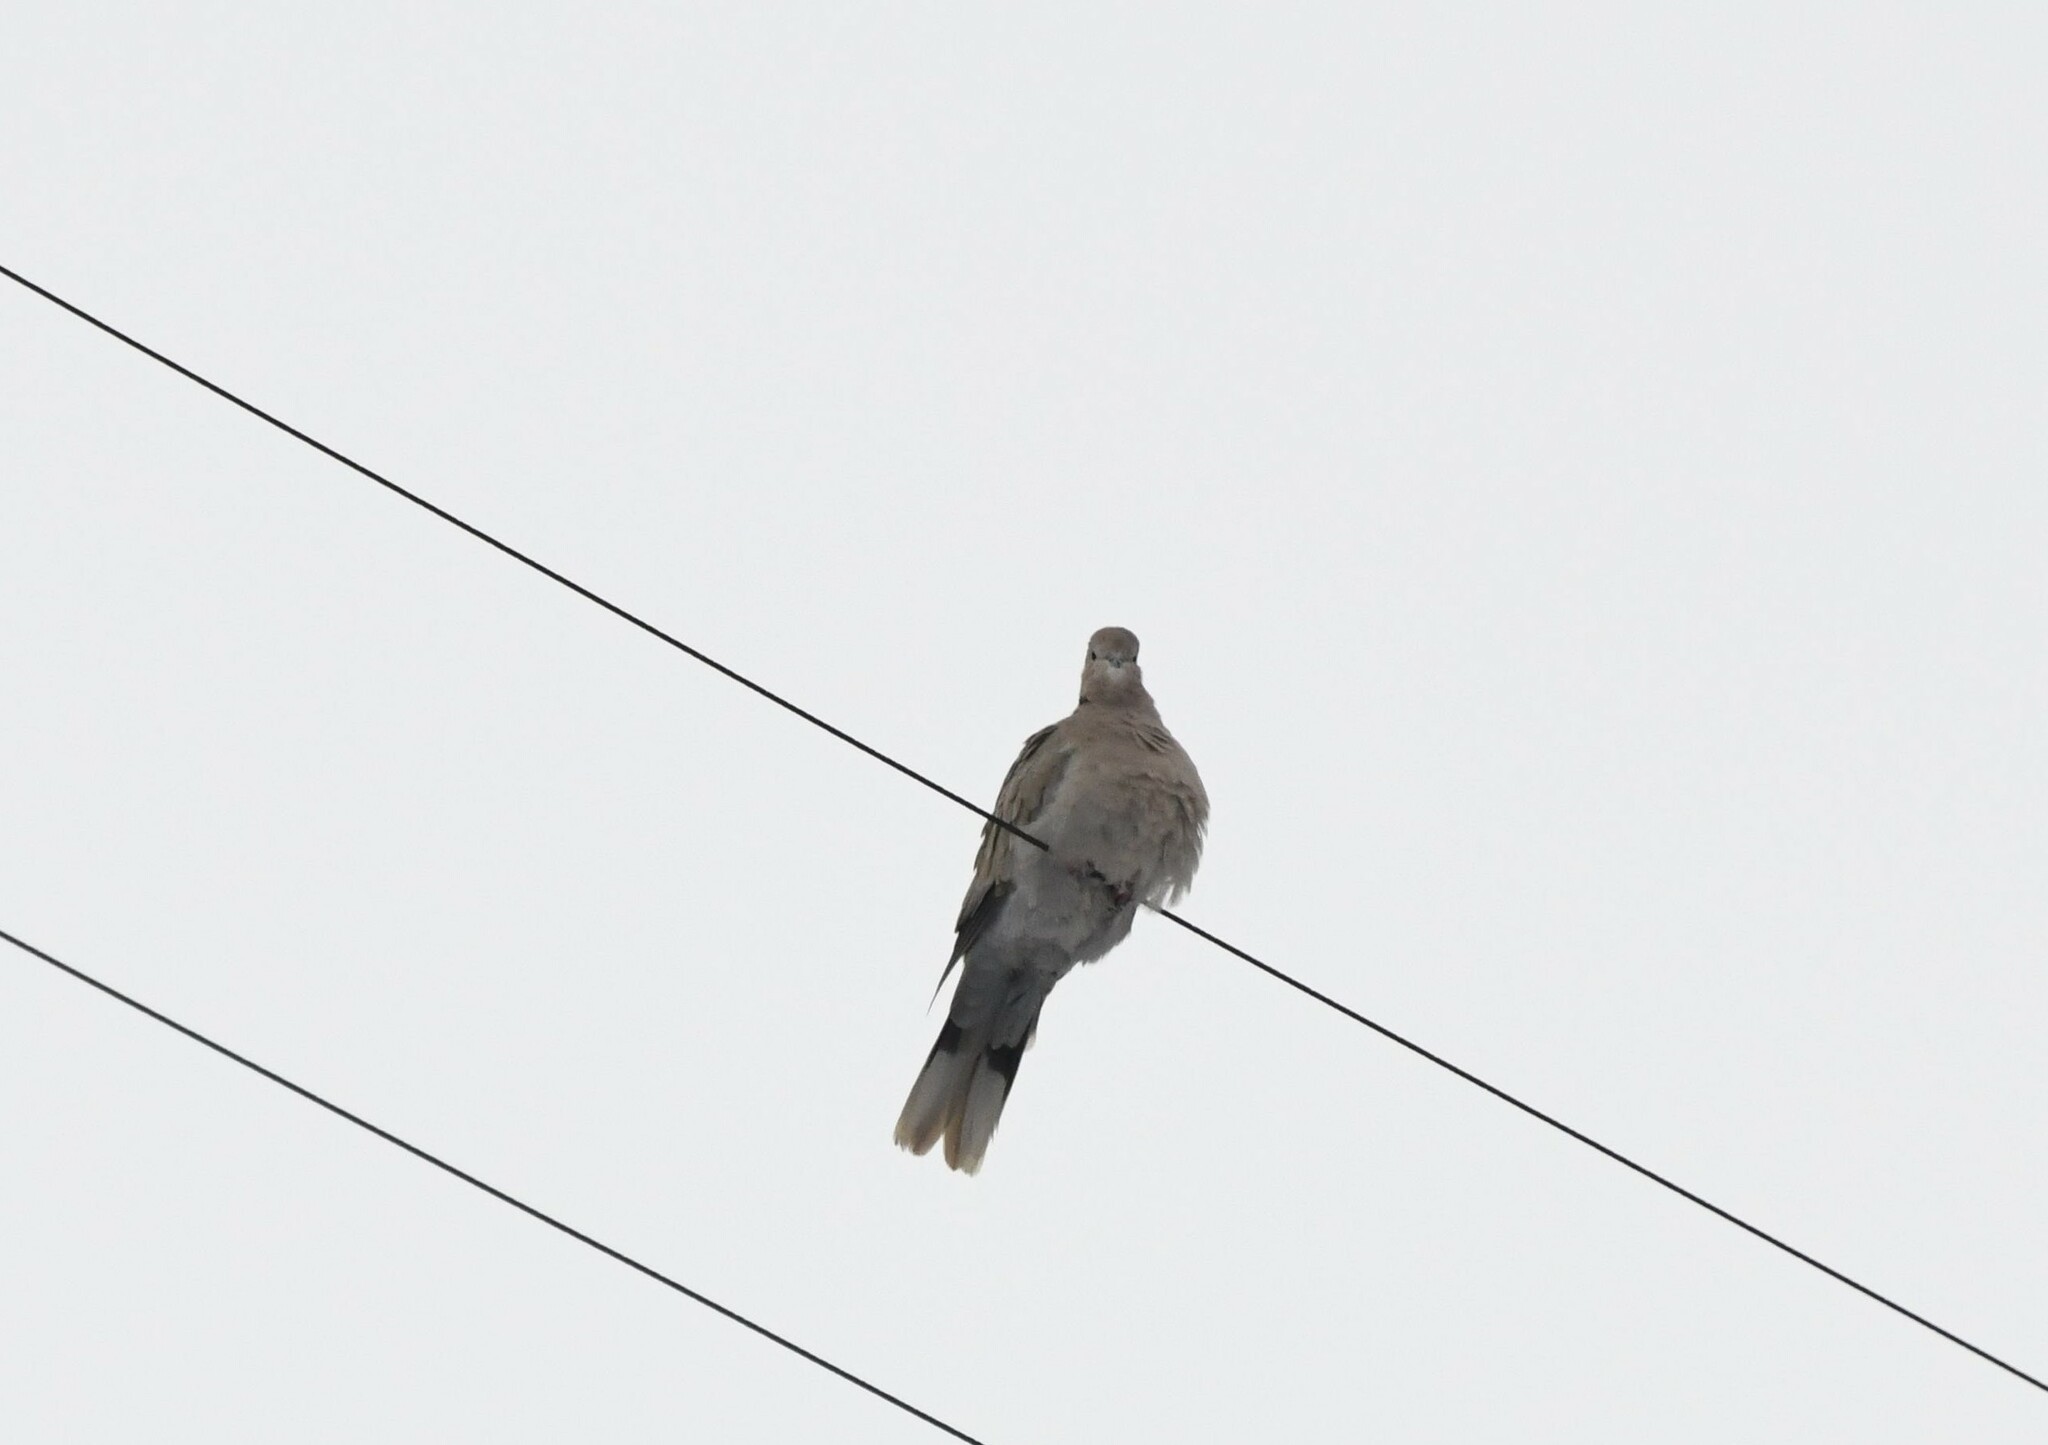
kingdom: Animalia
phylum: Chordata
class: Aves
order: Columbiformes
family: Columbidae
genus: Streptopelia
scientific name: Streptopelia decaocto
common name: Eurasian collared dove
